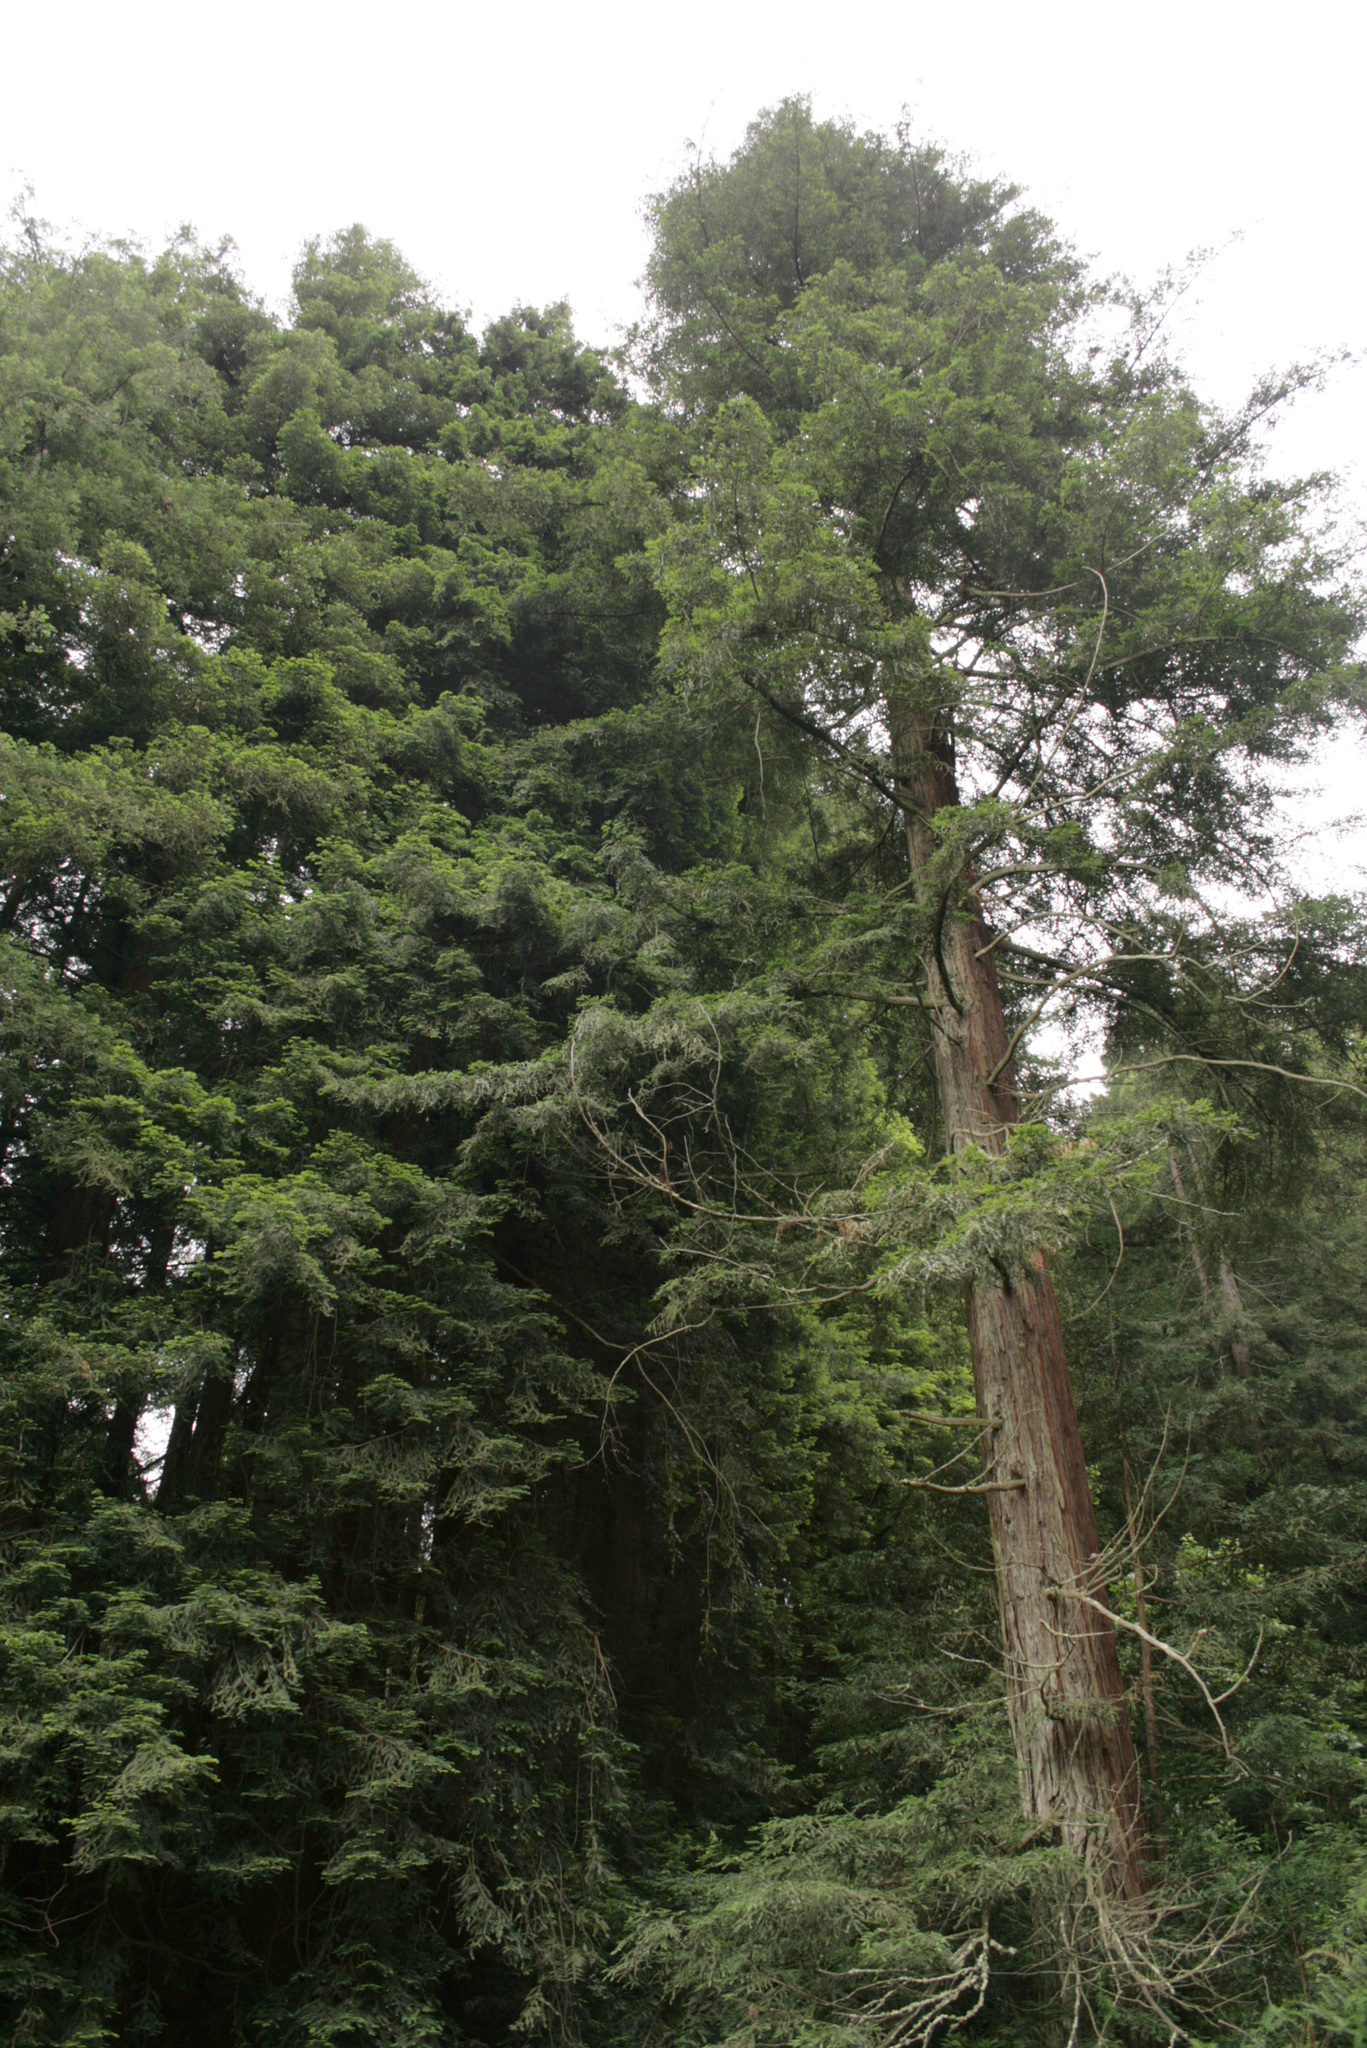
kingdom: Plantae
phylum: Tracheophyta
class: Pinopsida
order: Pinales
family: Cupressaceae
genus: Sequoia
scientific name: Sequoia sempervirens
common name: Coast redwood
